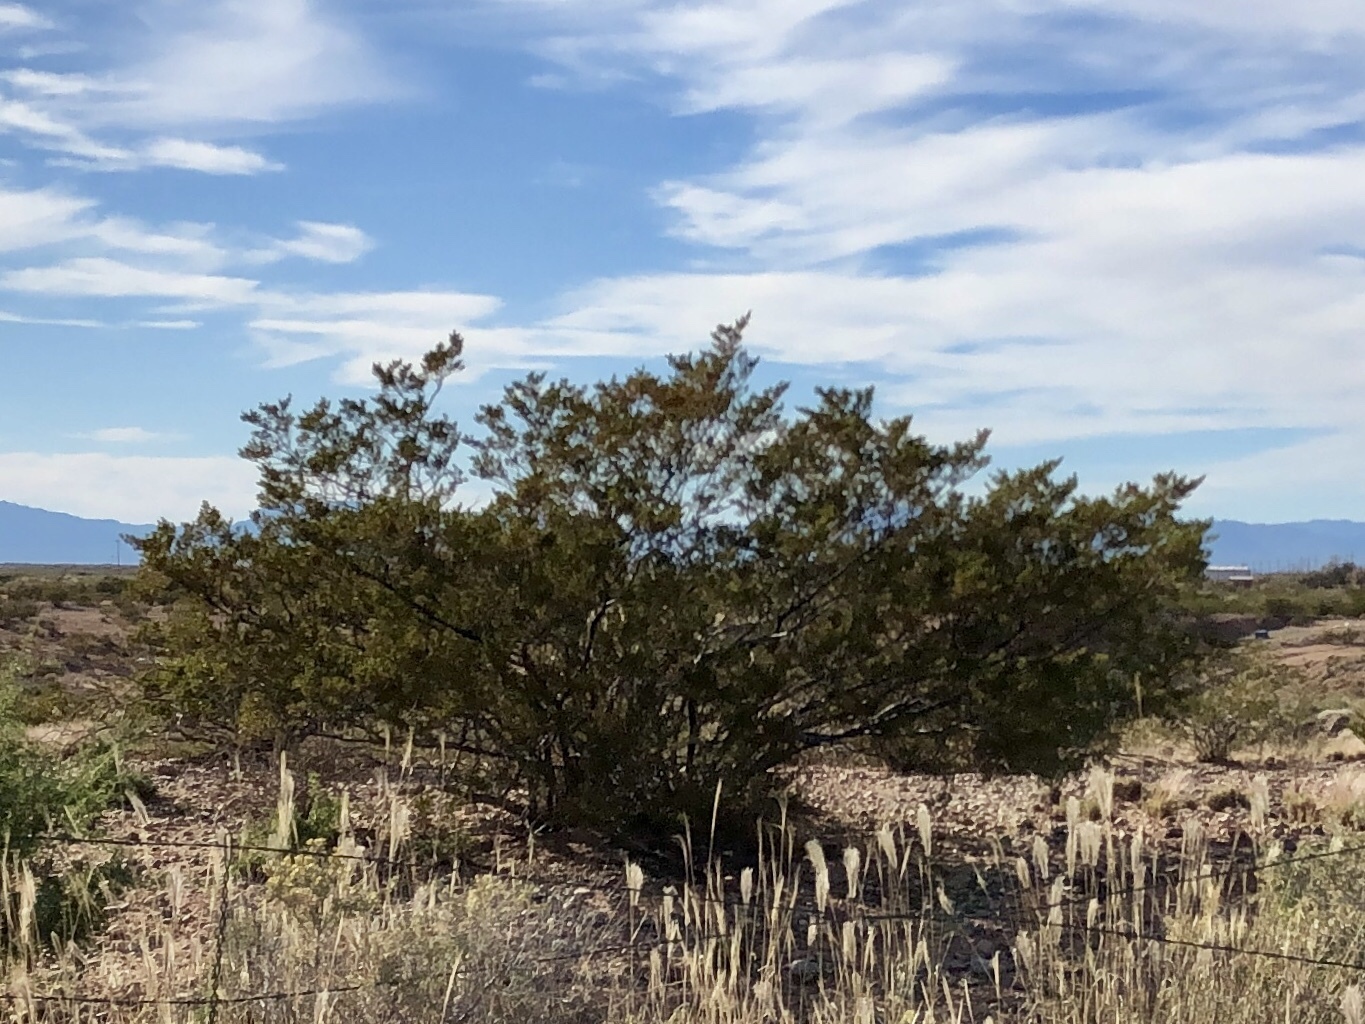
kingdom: Plantae
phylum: Tracheophyta
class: Magnoliopsida
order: Zygophyllales
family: Zygophyllaceae
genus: Larrea
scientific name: Larrea tridentata
